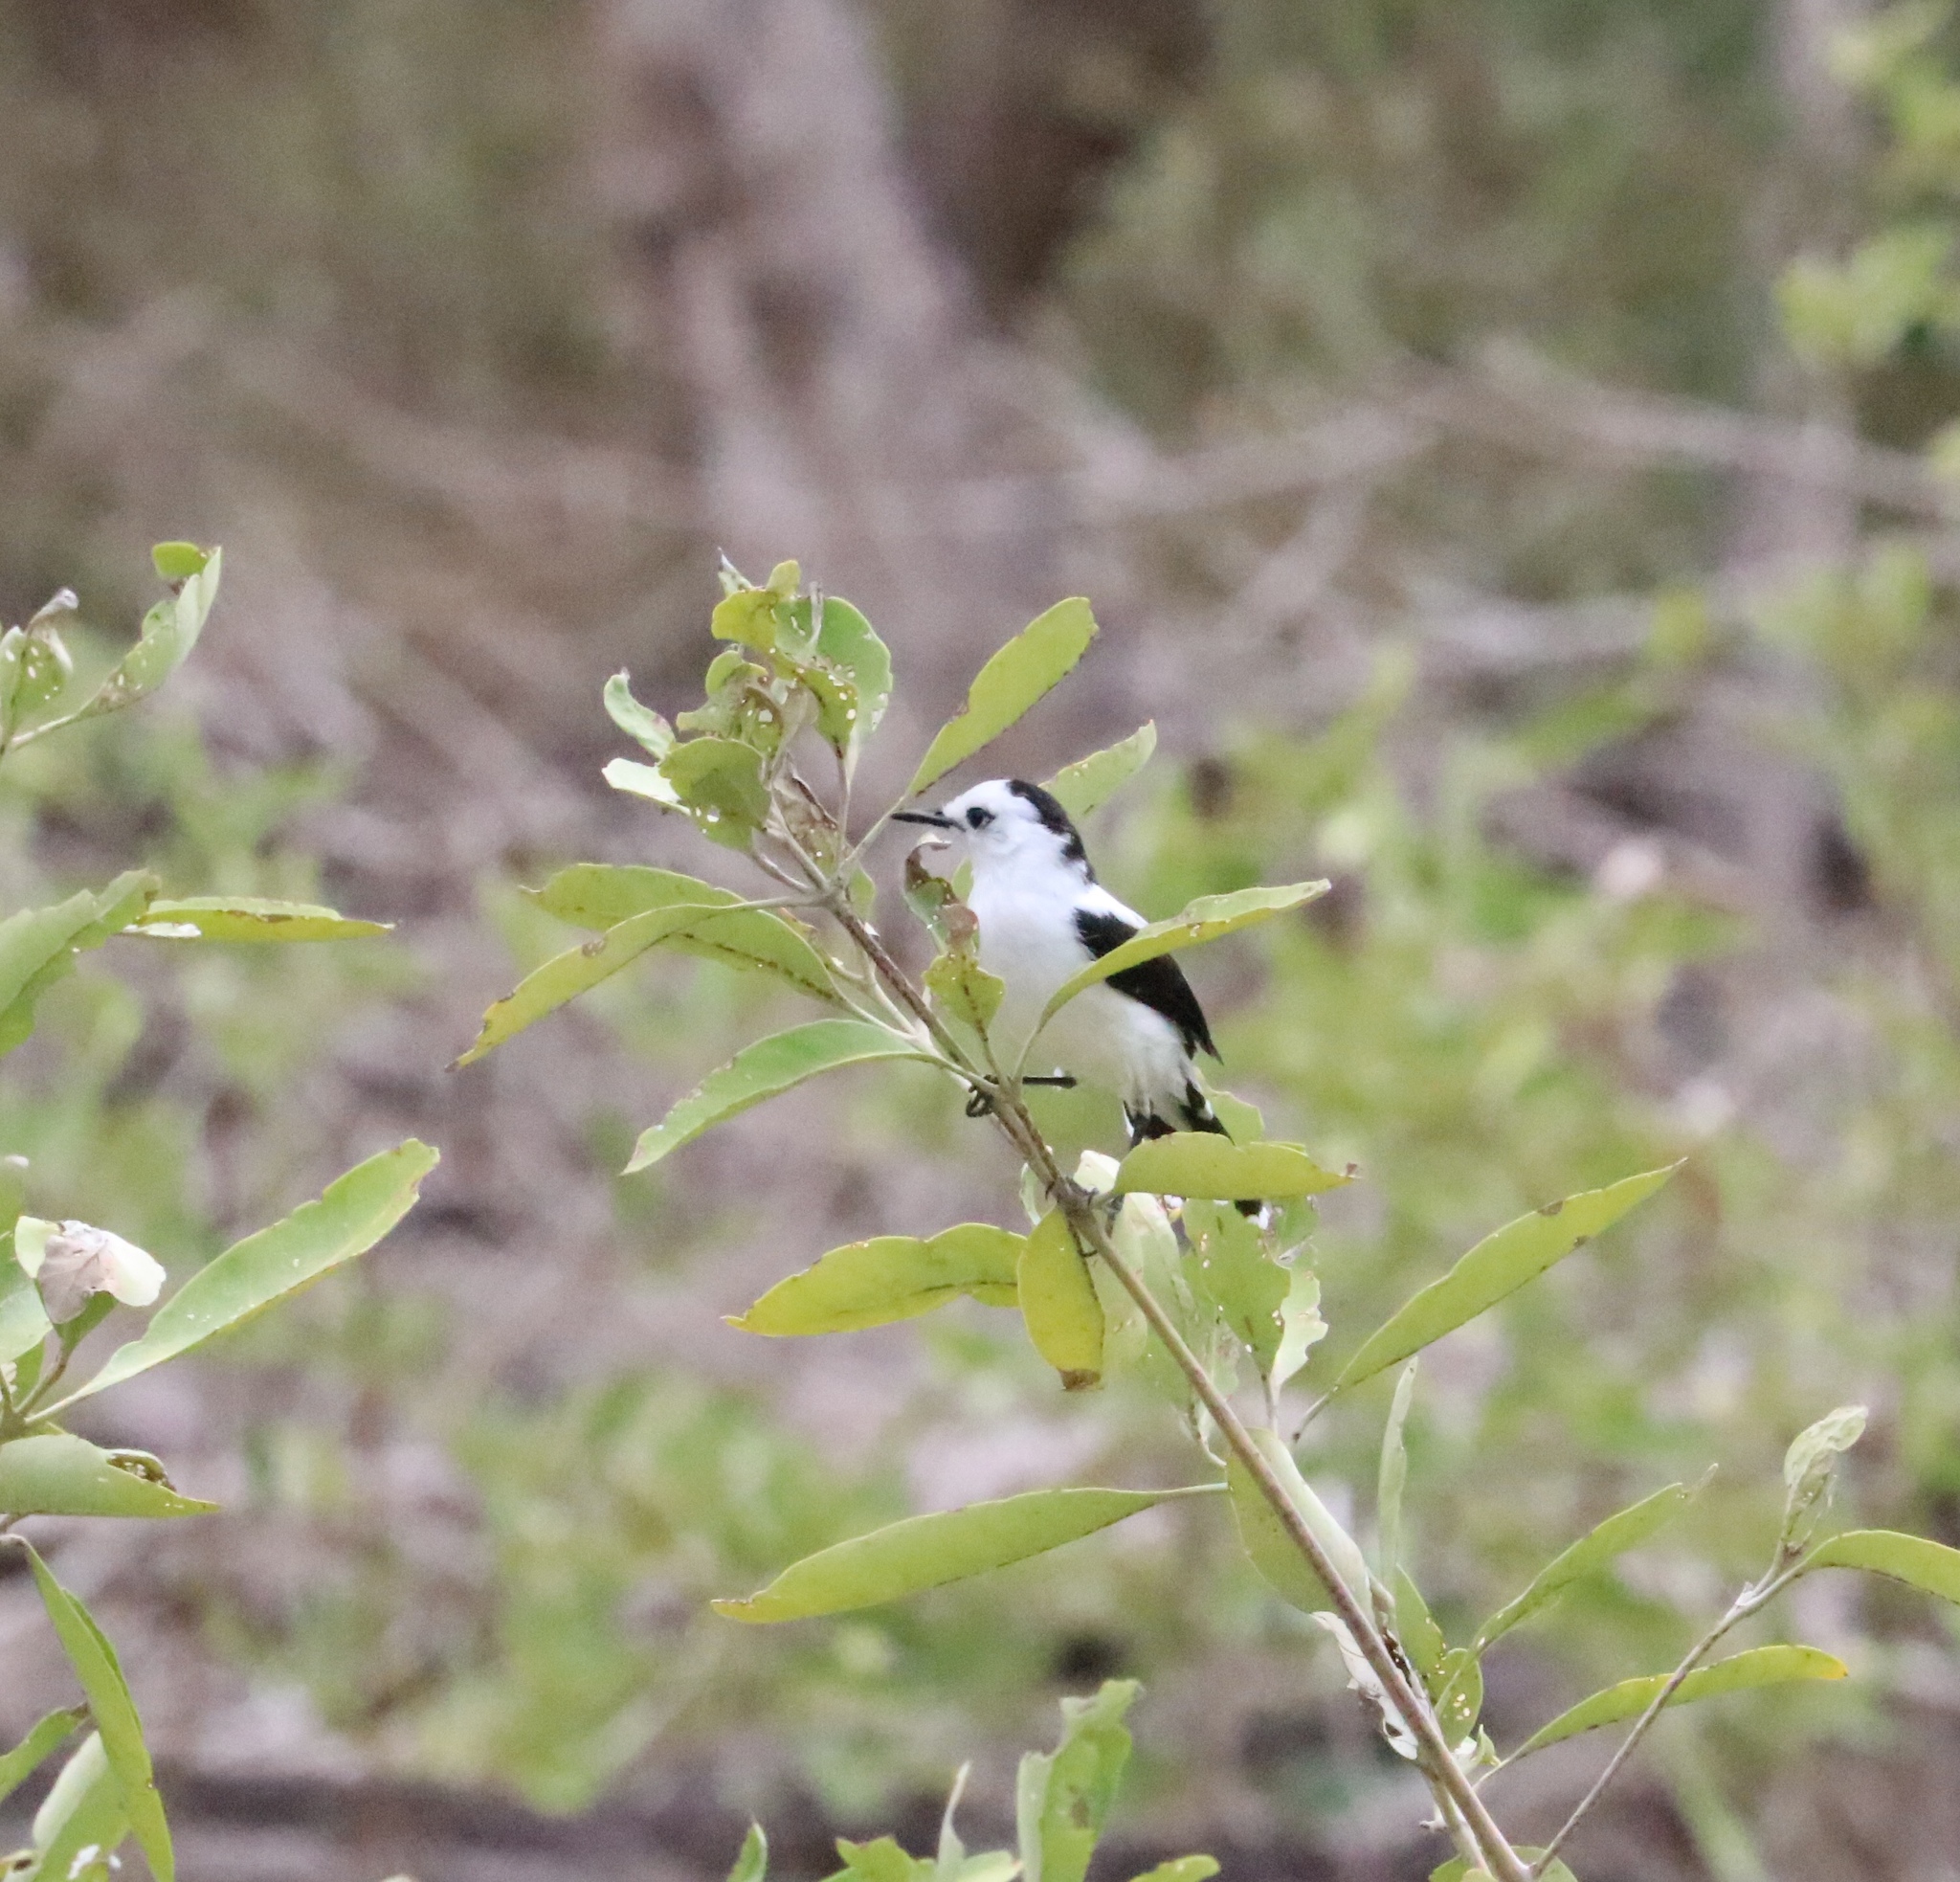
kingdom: Animalia
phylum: Chordata
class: Aves
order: Passeriformes
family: Tyrannidae
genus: Fluvicola
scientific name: Fluvicola pica
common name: Pied water-tyrant
